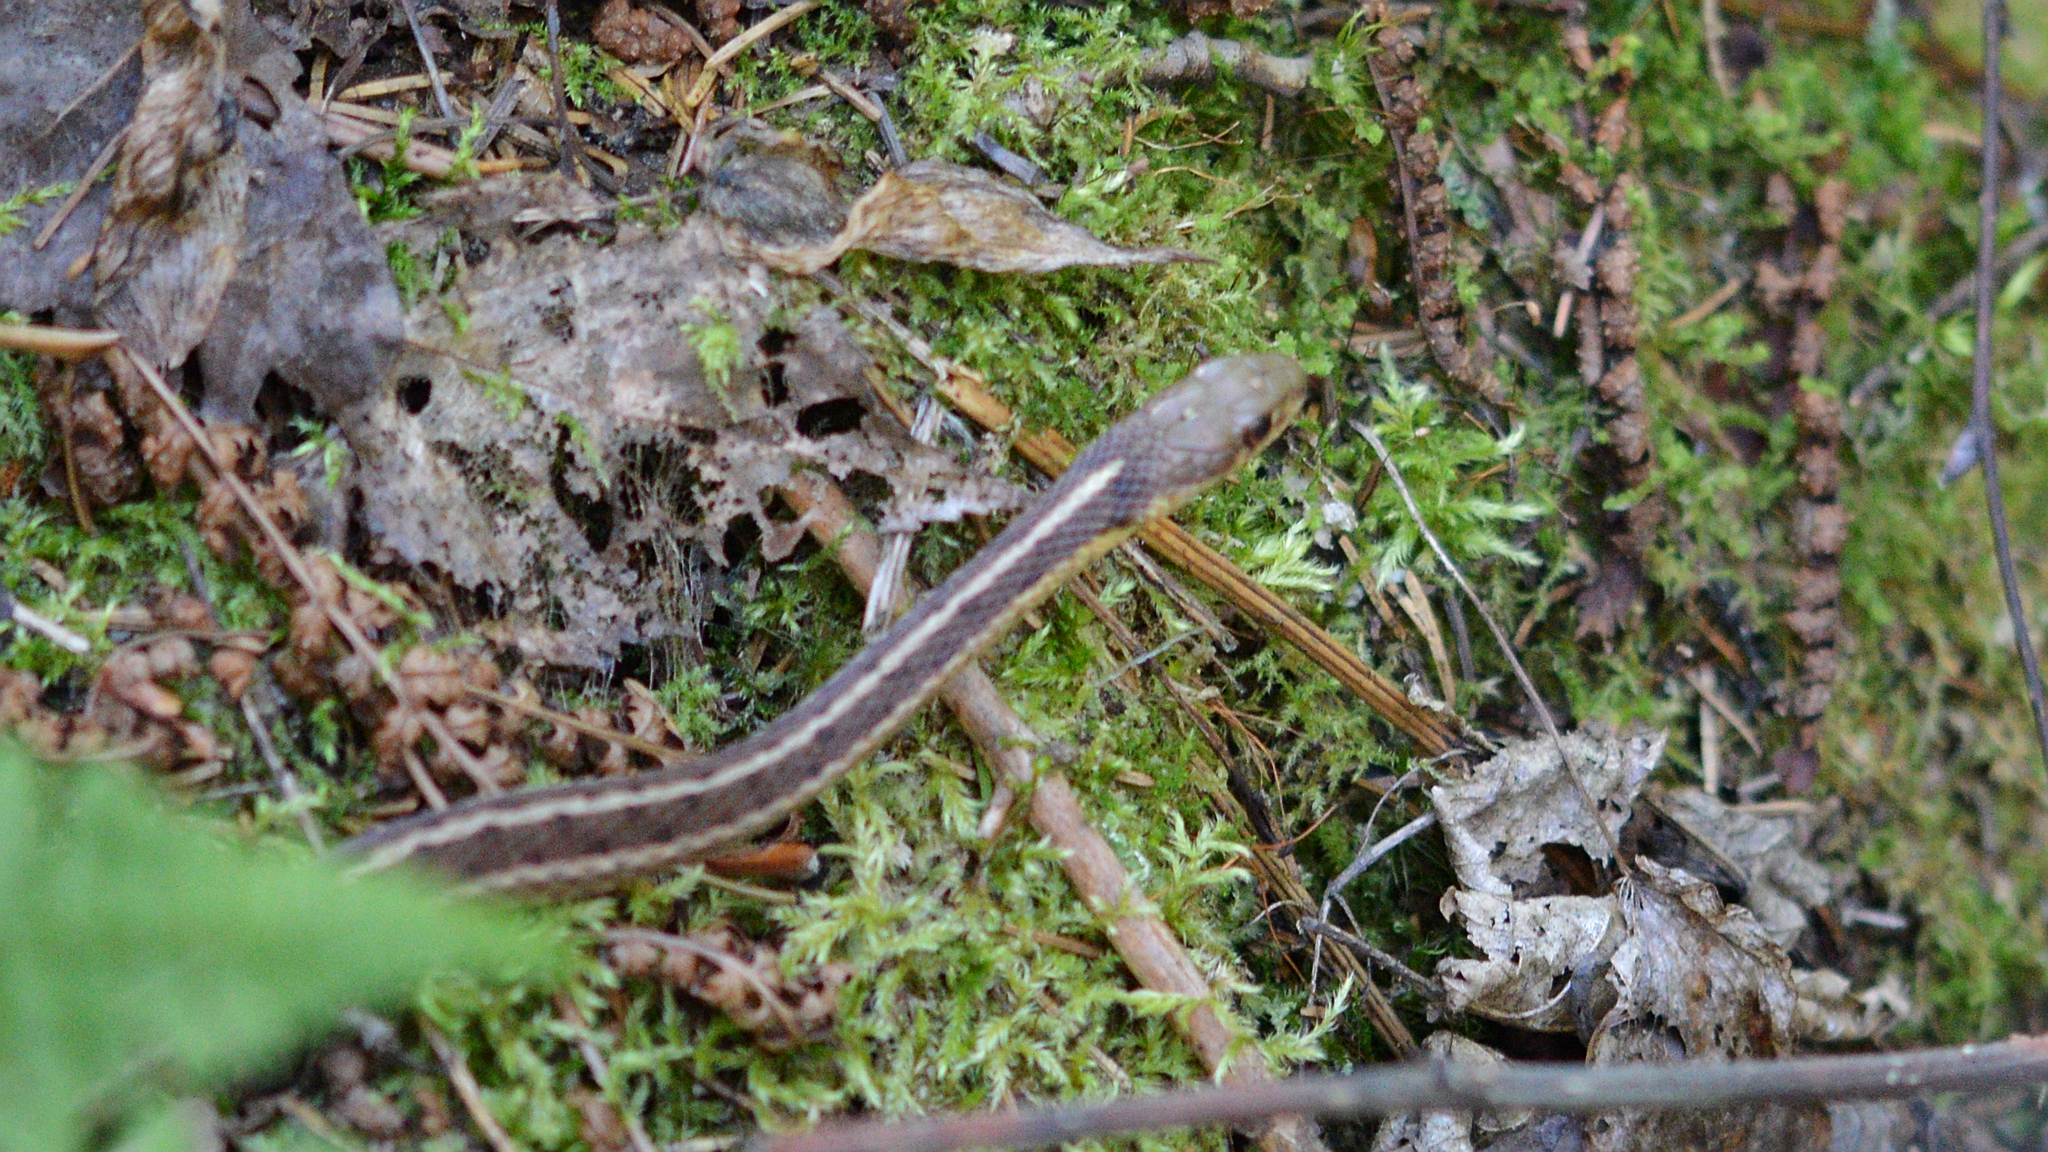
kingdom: Animalia
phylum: Chordata
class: Squamata
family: Colubridae
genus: Thamnophis
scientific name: Thamnophis sirtalis
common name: Common garter snake
